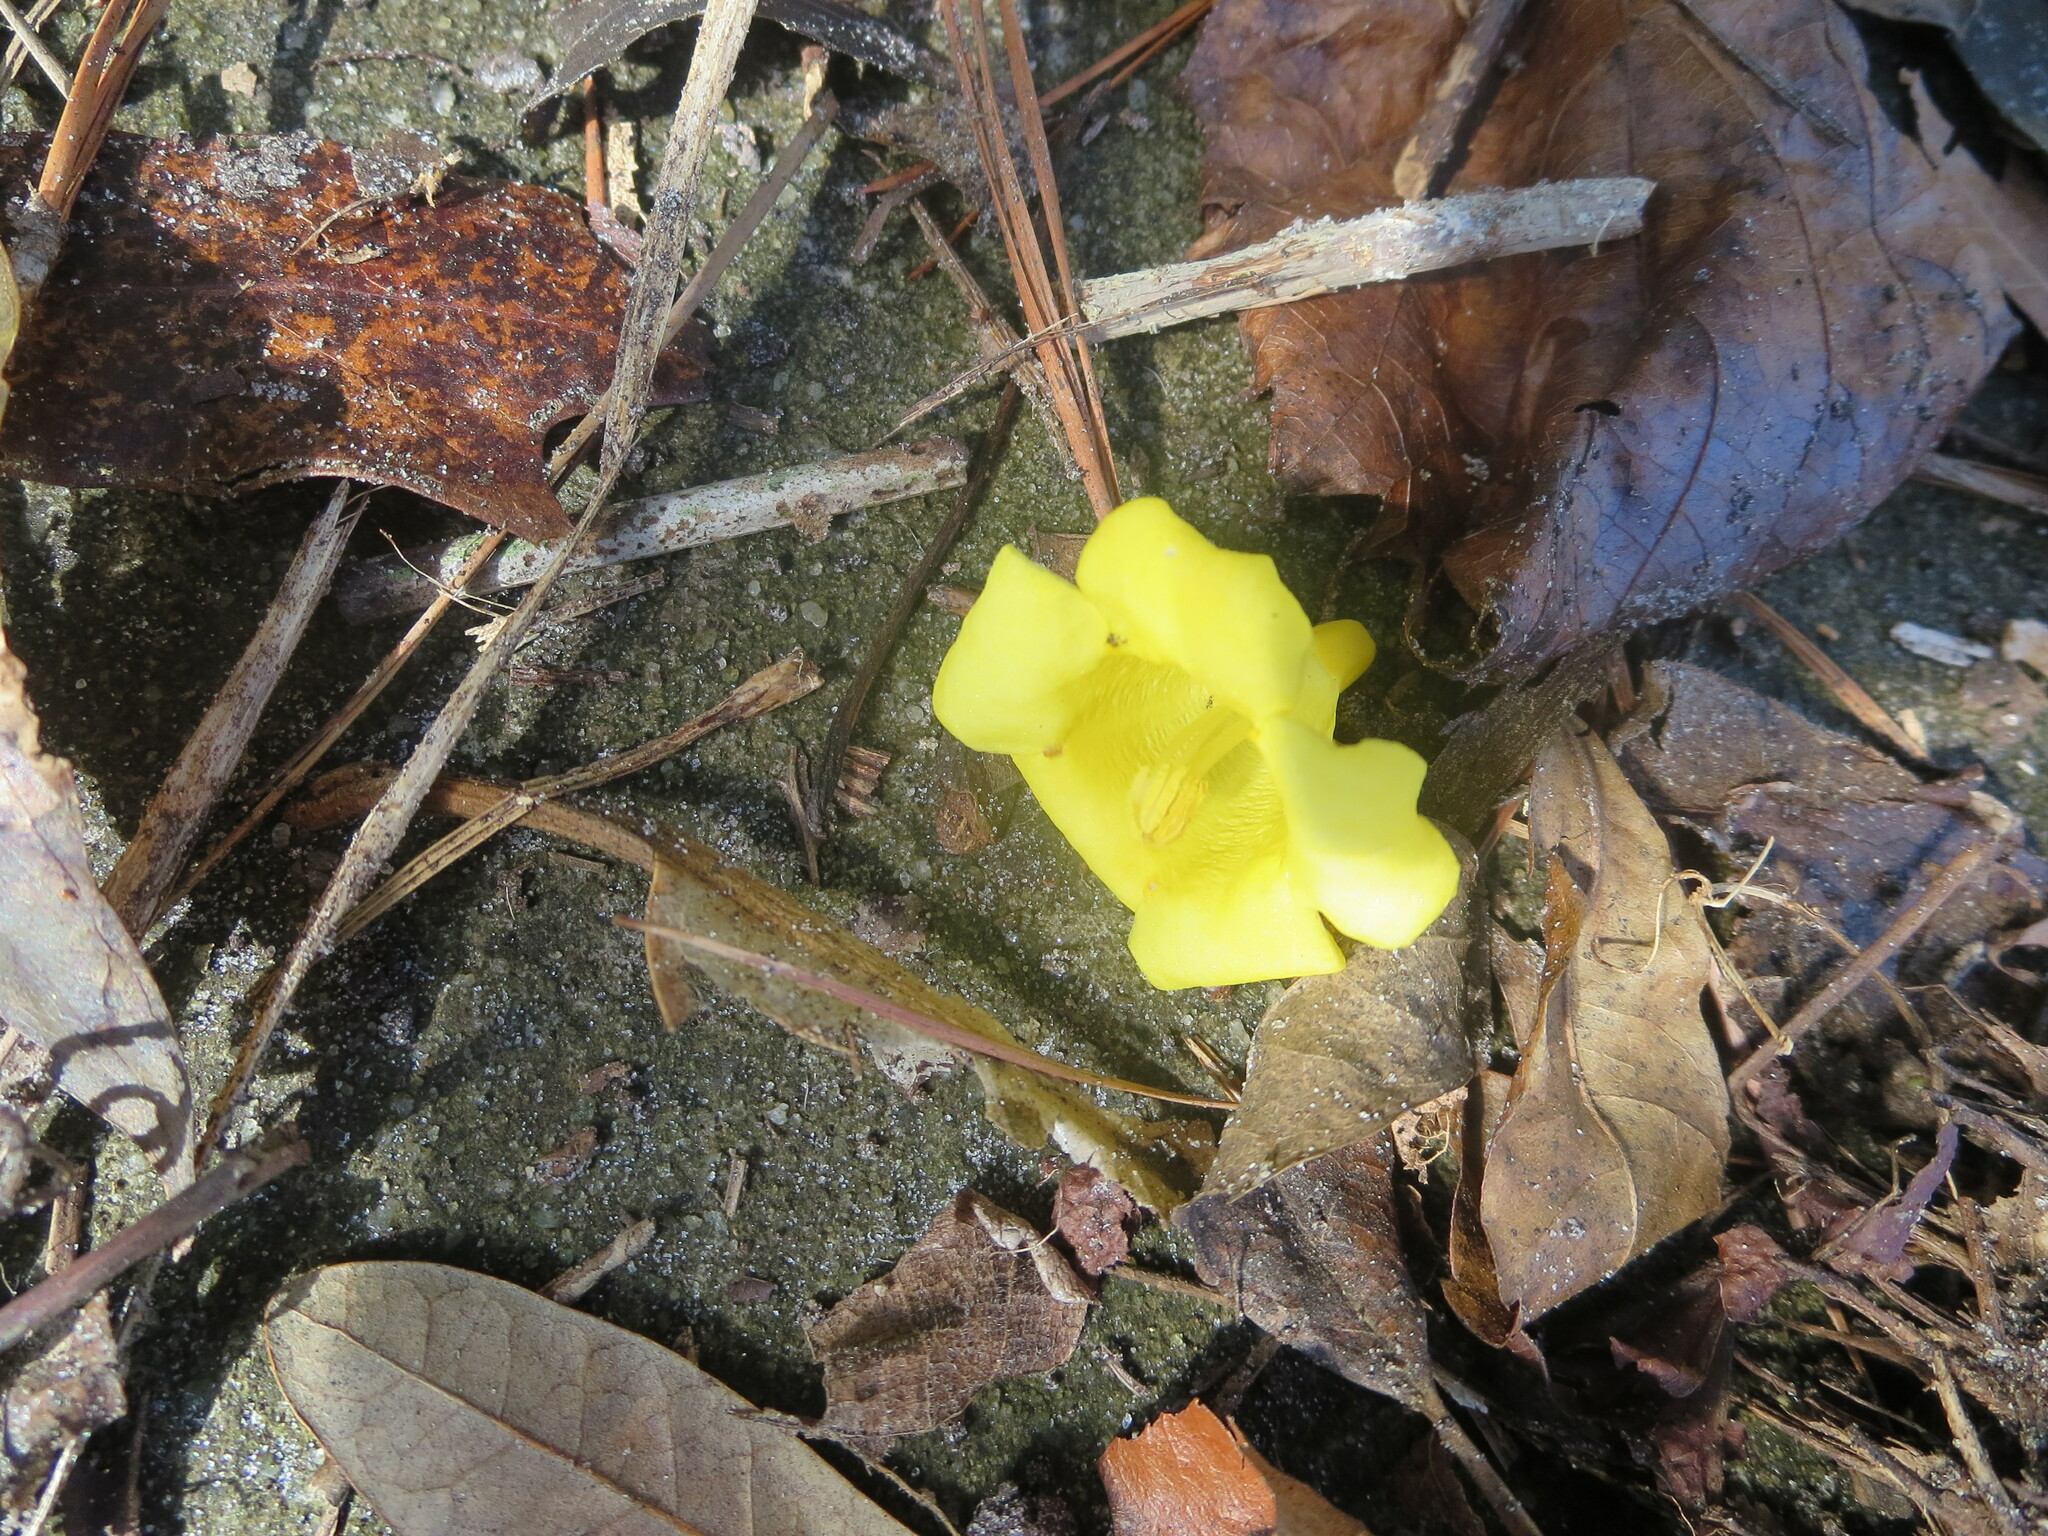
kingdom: Plantae
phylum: Tracheophyta
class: Magnoliopsida
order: Gentianales
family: Gelsemiaceae
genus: Gelsemium
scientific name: Gelsemium sempervirens
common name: Carolina-jasmine
